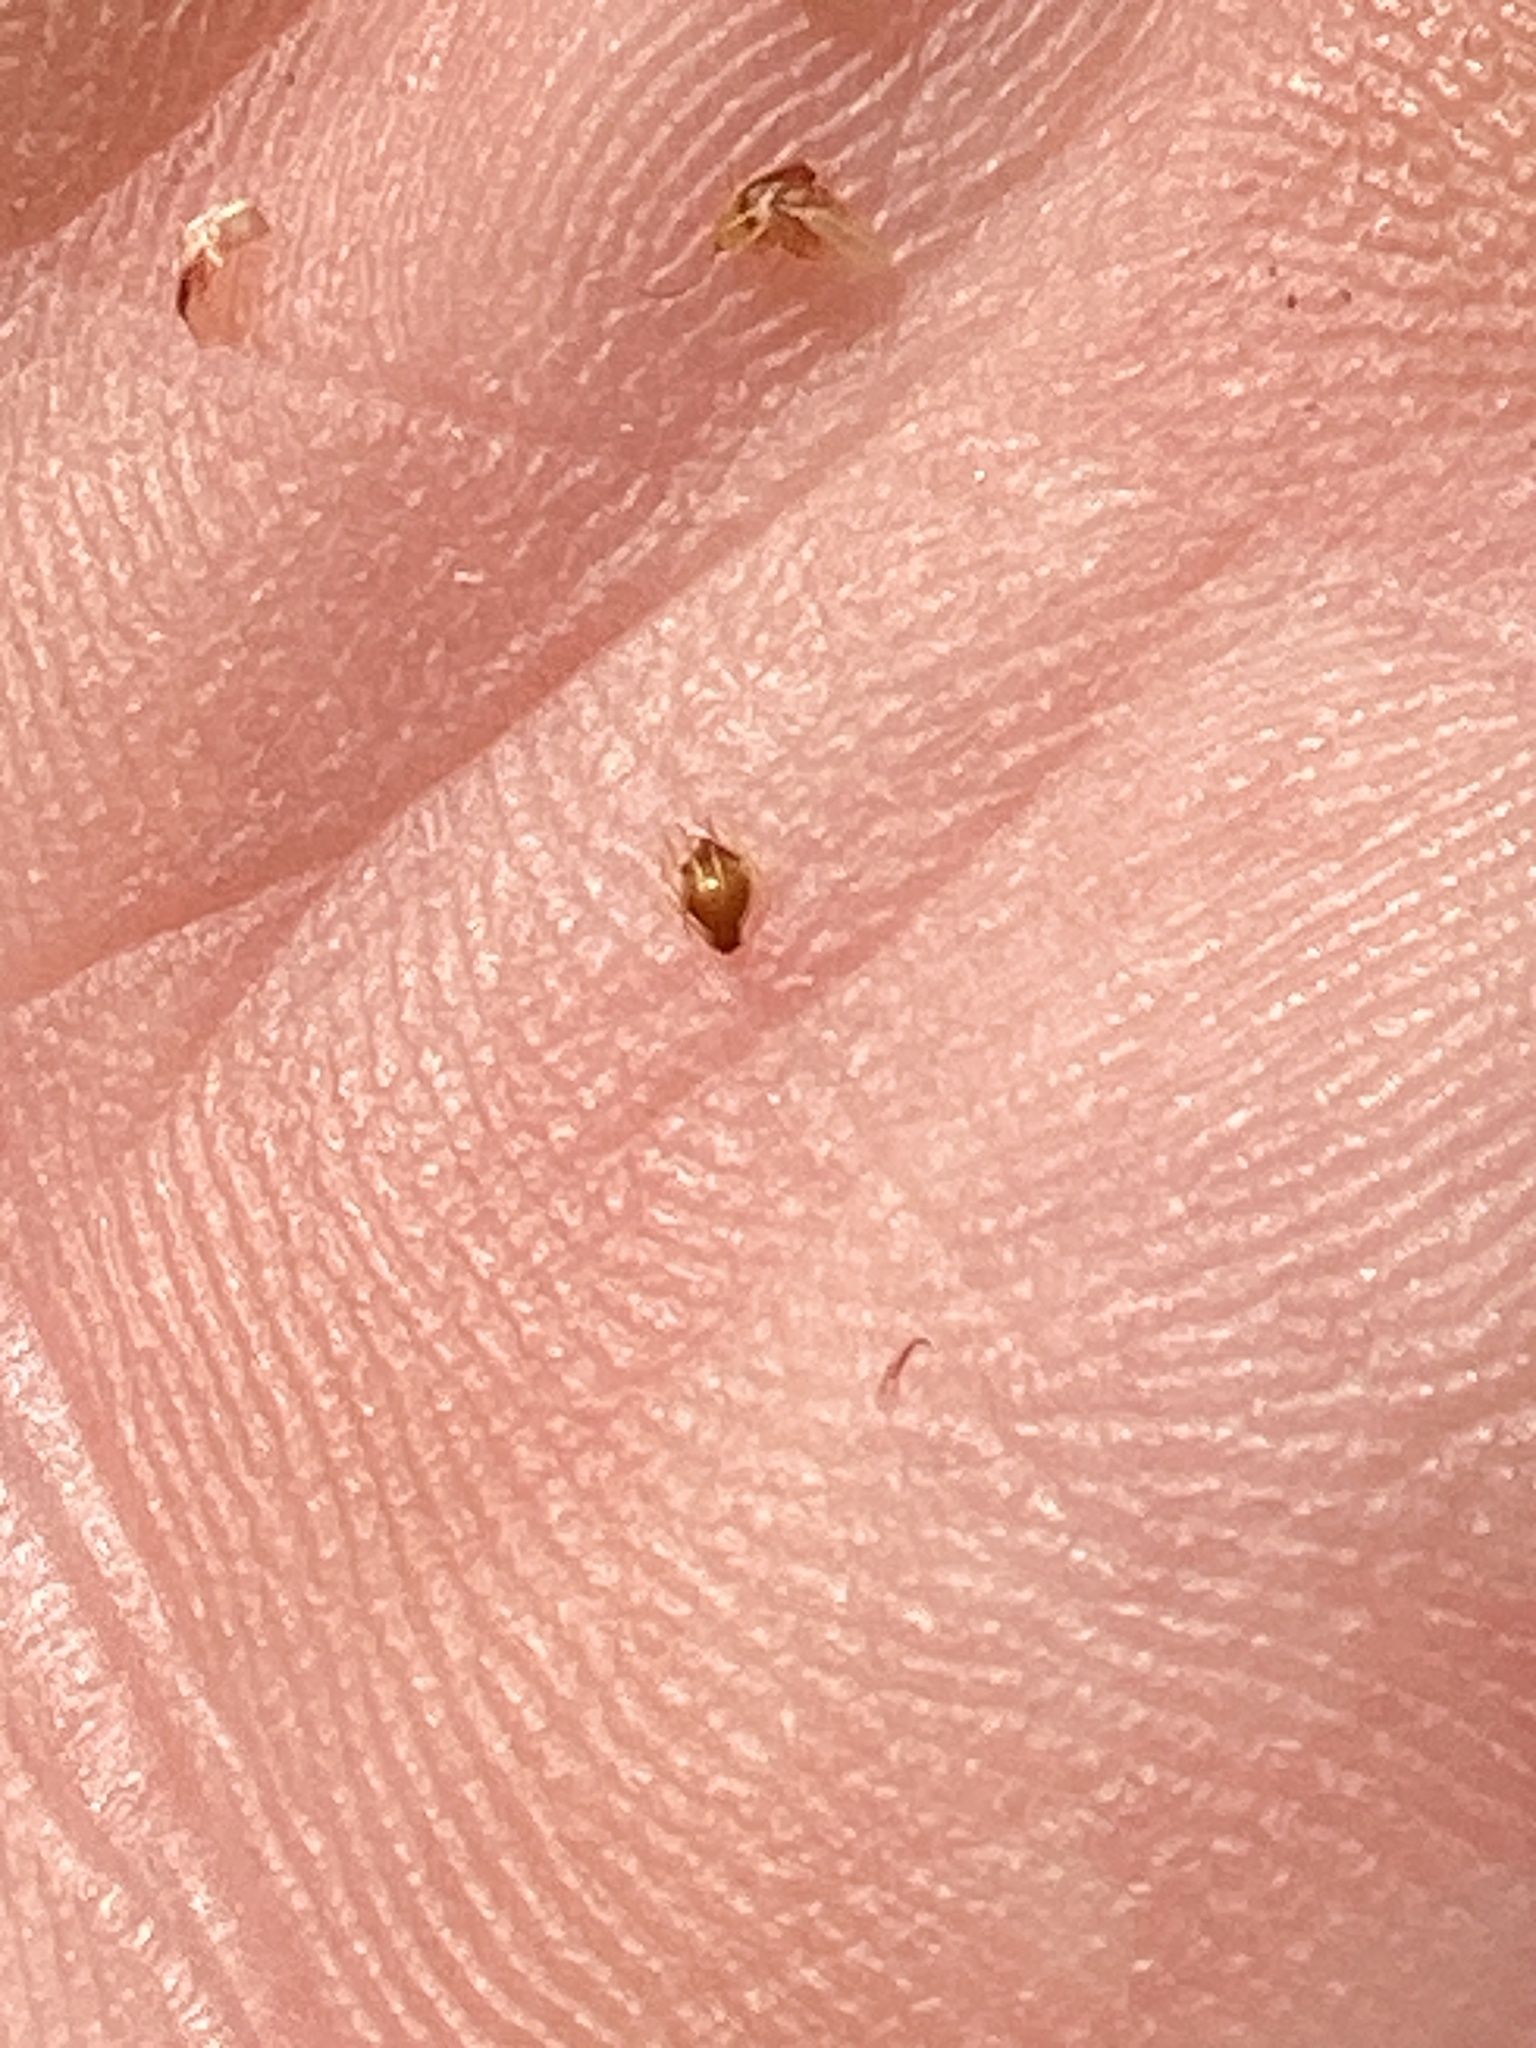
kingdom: Plantae
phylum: Tracheophyta
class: Liliopsida
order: Poales
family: Cyperaceae
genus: Eleocharis
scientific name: Eleocharis obtusa
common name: Blunt spikerush
